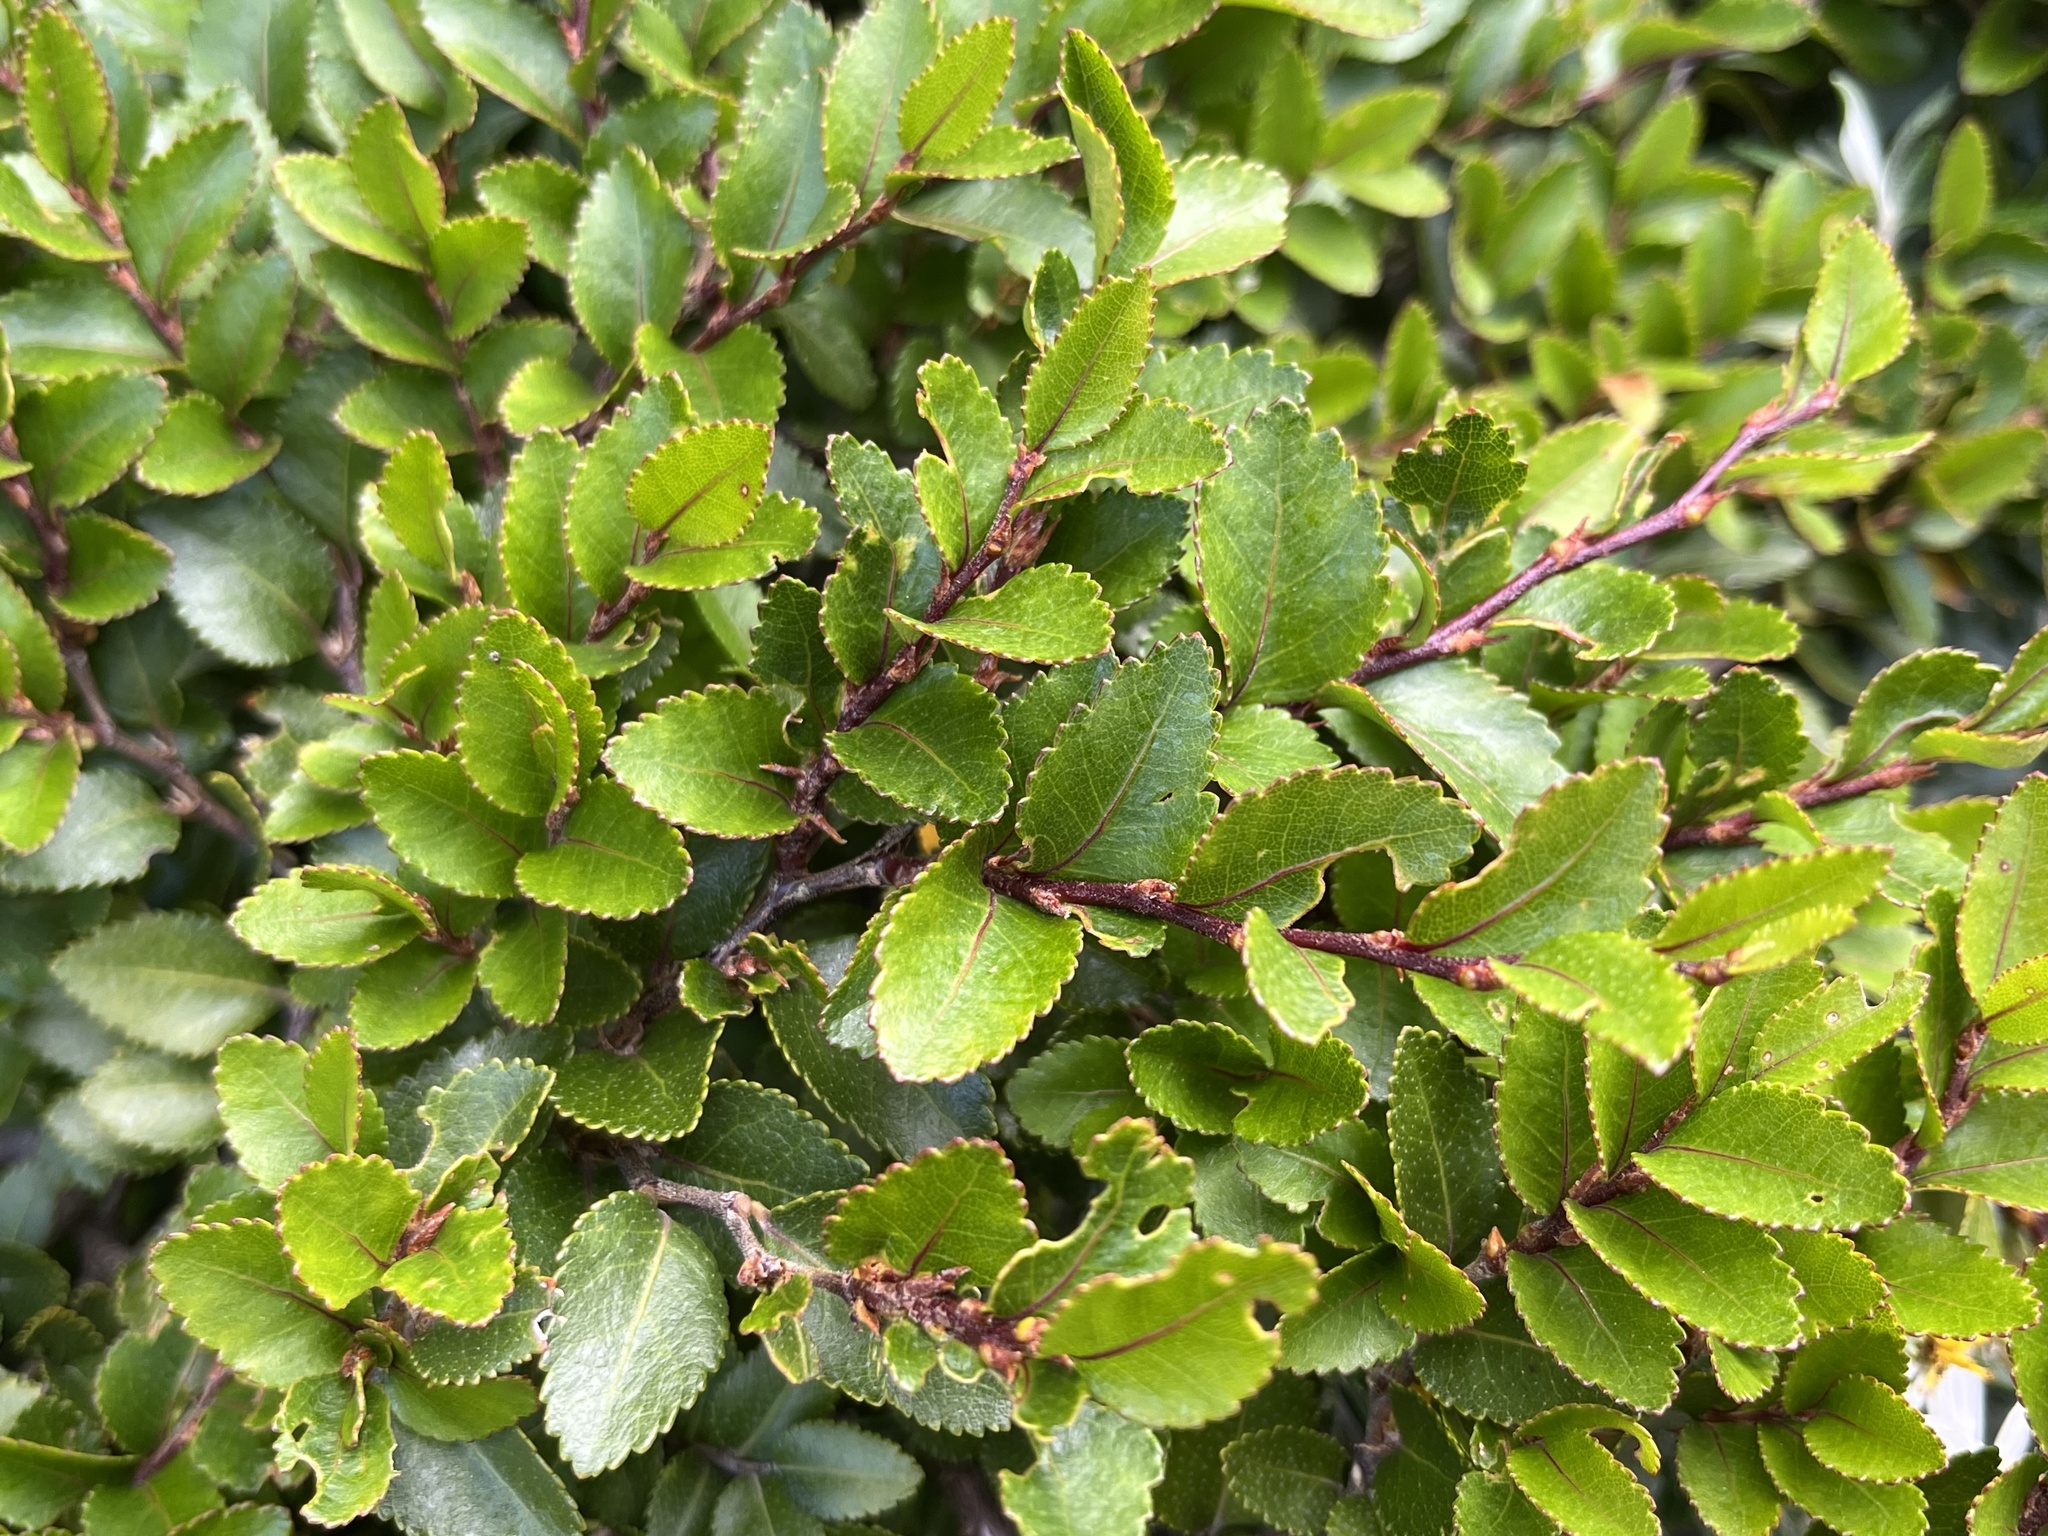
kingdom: Plantae
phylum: Tracheophyta
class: Magnoliopsida
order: Fagales
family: Nothofagaceae
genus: Nothofagus
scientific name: Nothofagus betuloides
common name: Magellan's beech
